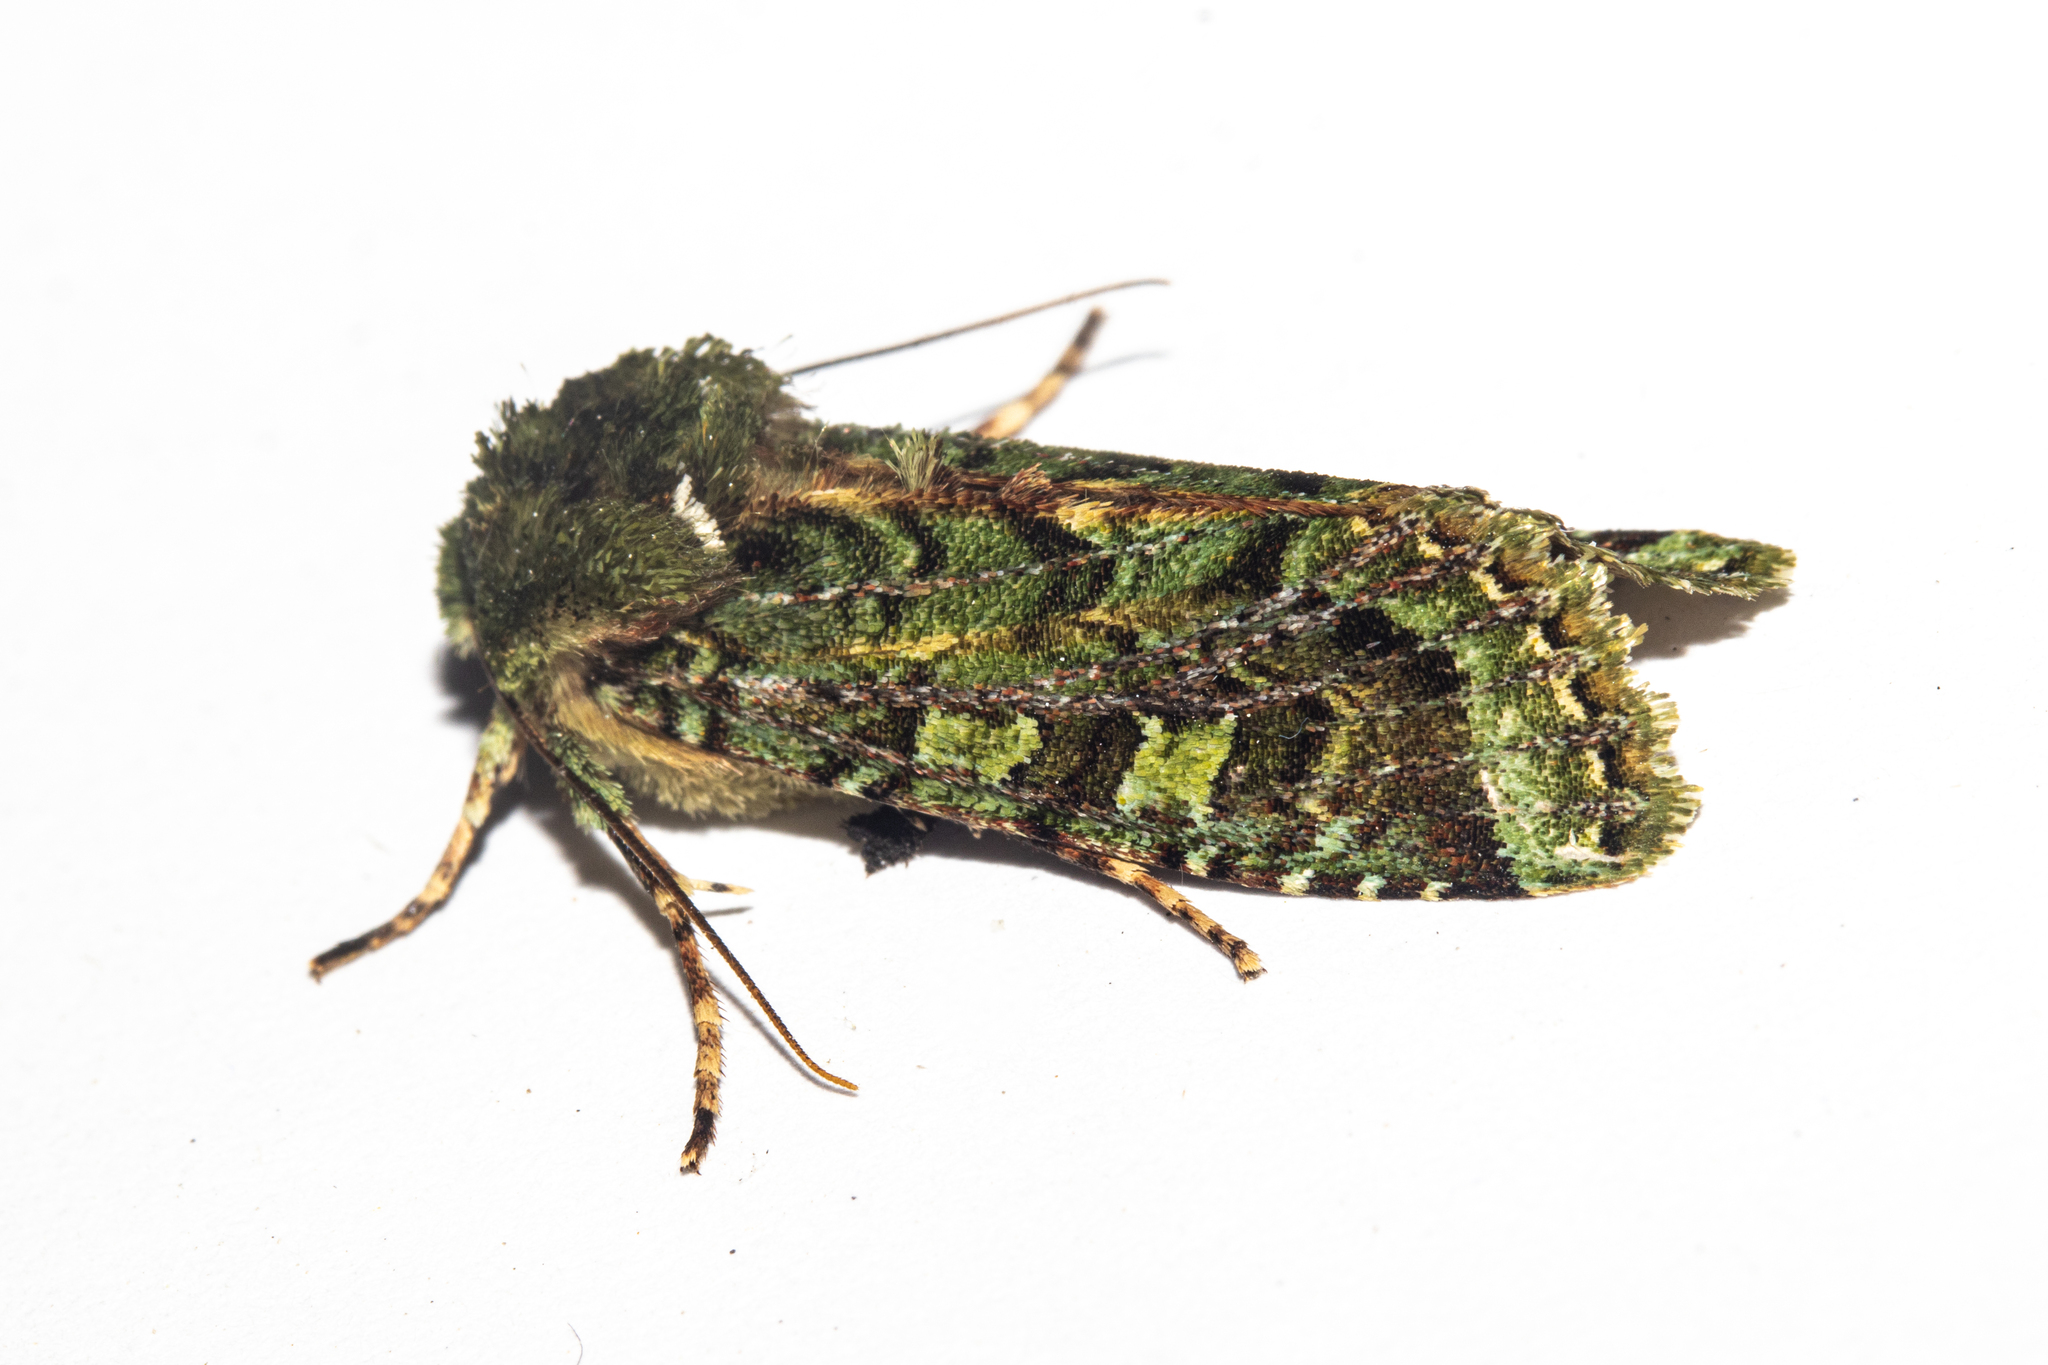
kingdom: Animalia
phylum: Arthropoda
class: Insecta
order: Lepidoptera
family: Noctuidae
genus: Feredayia
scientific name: Feredayia grammosa
